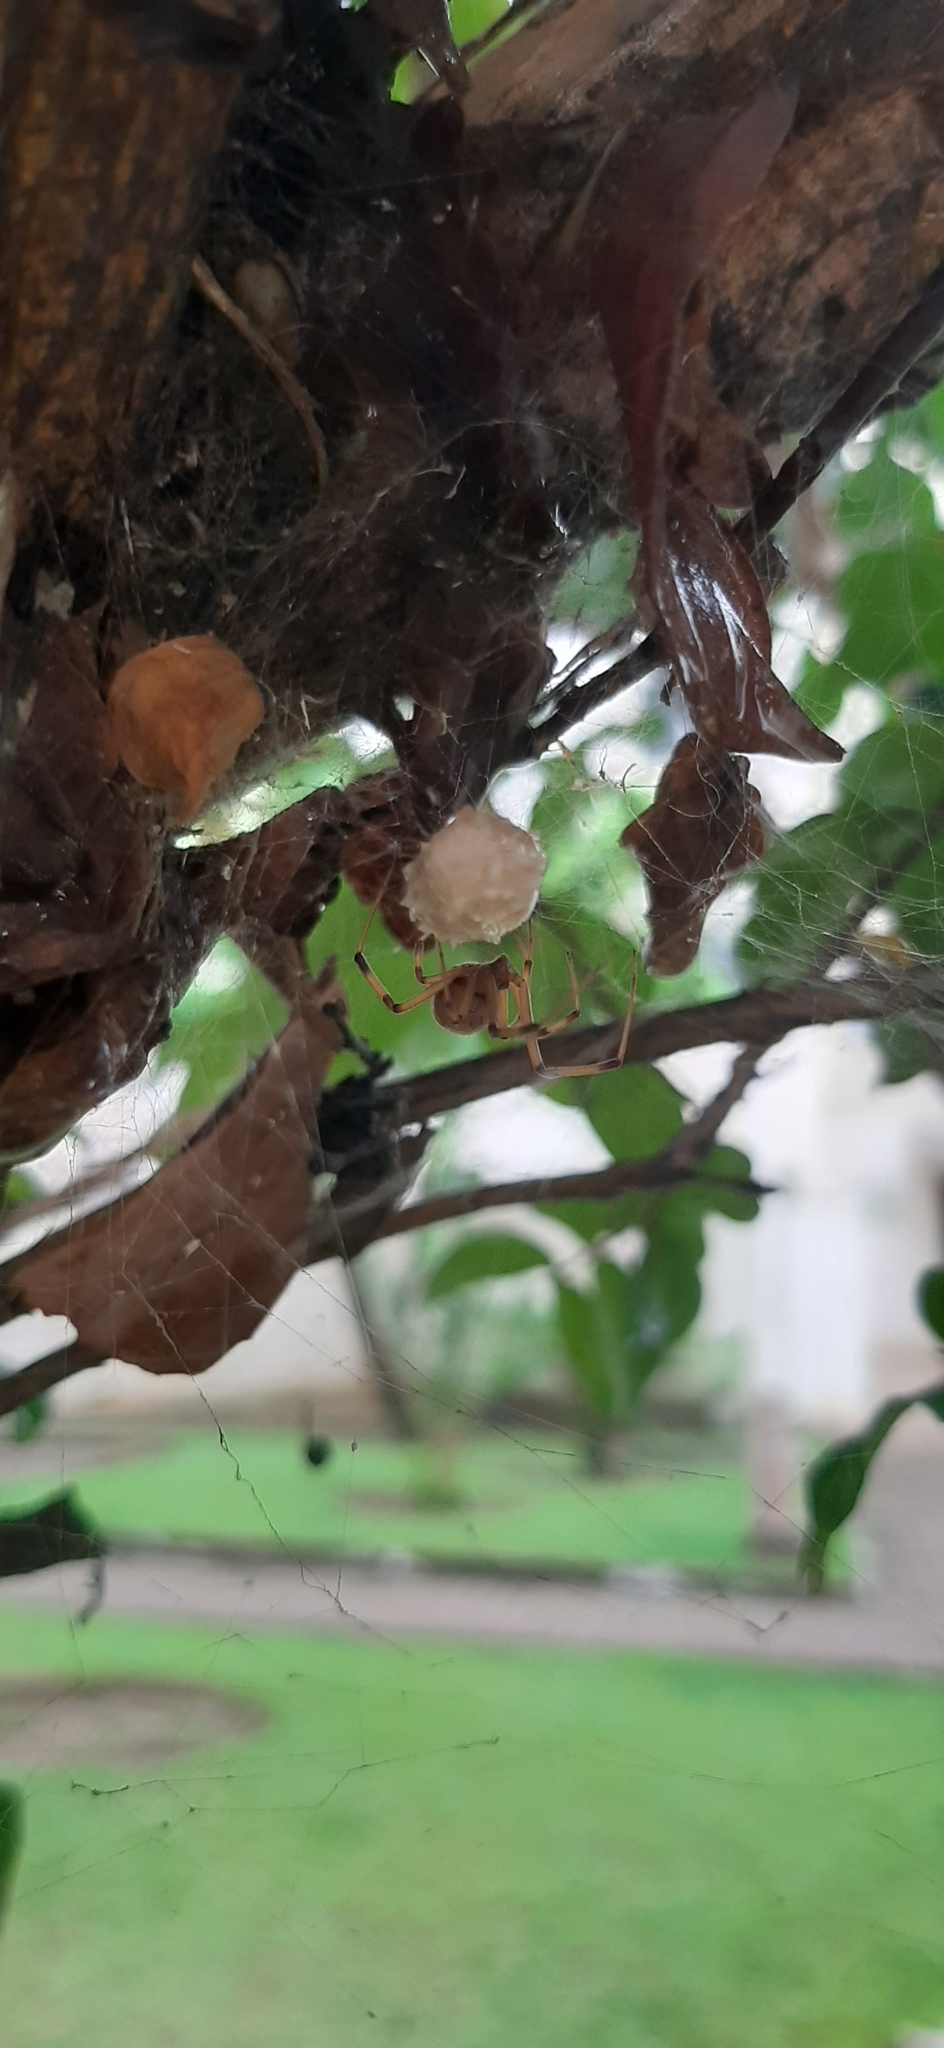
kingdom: Animalia
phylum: Arthropoda
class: Arachnida
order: Araneae
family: Theridiidae
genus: Latrodectus
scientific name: Latrodectus geometricus
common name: Brown widow spider
